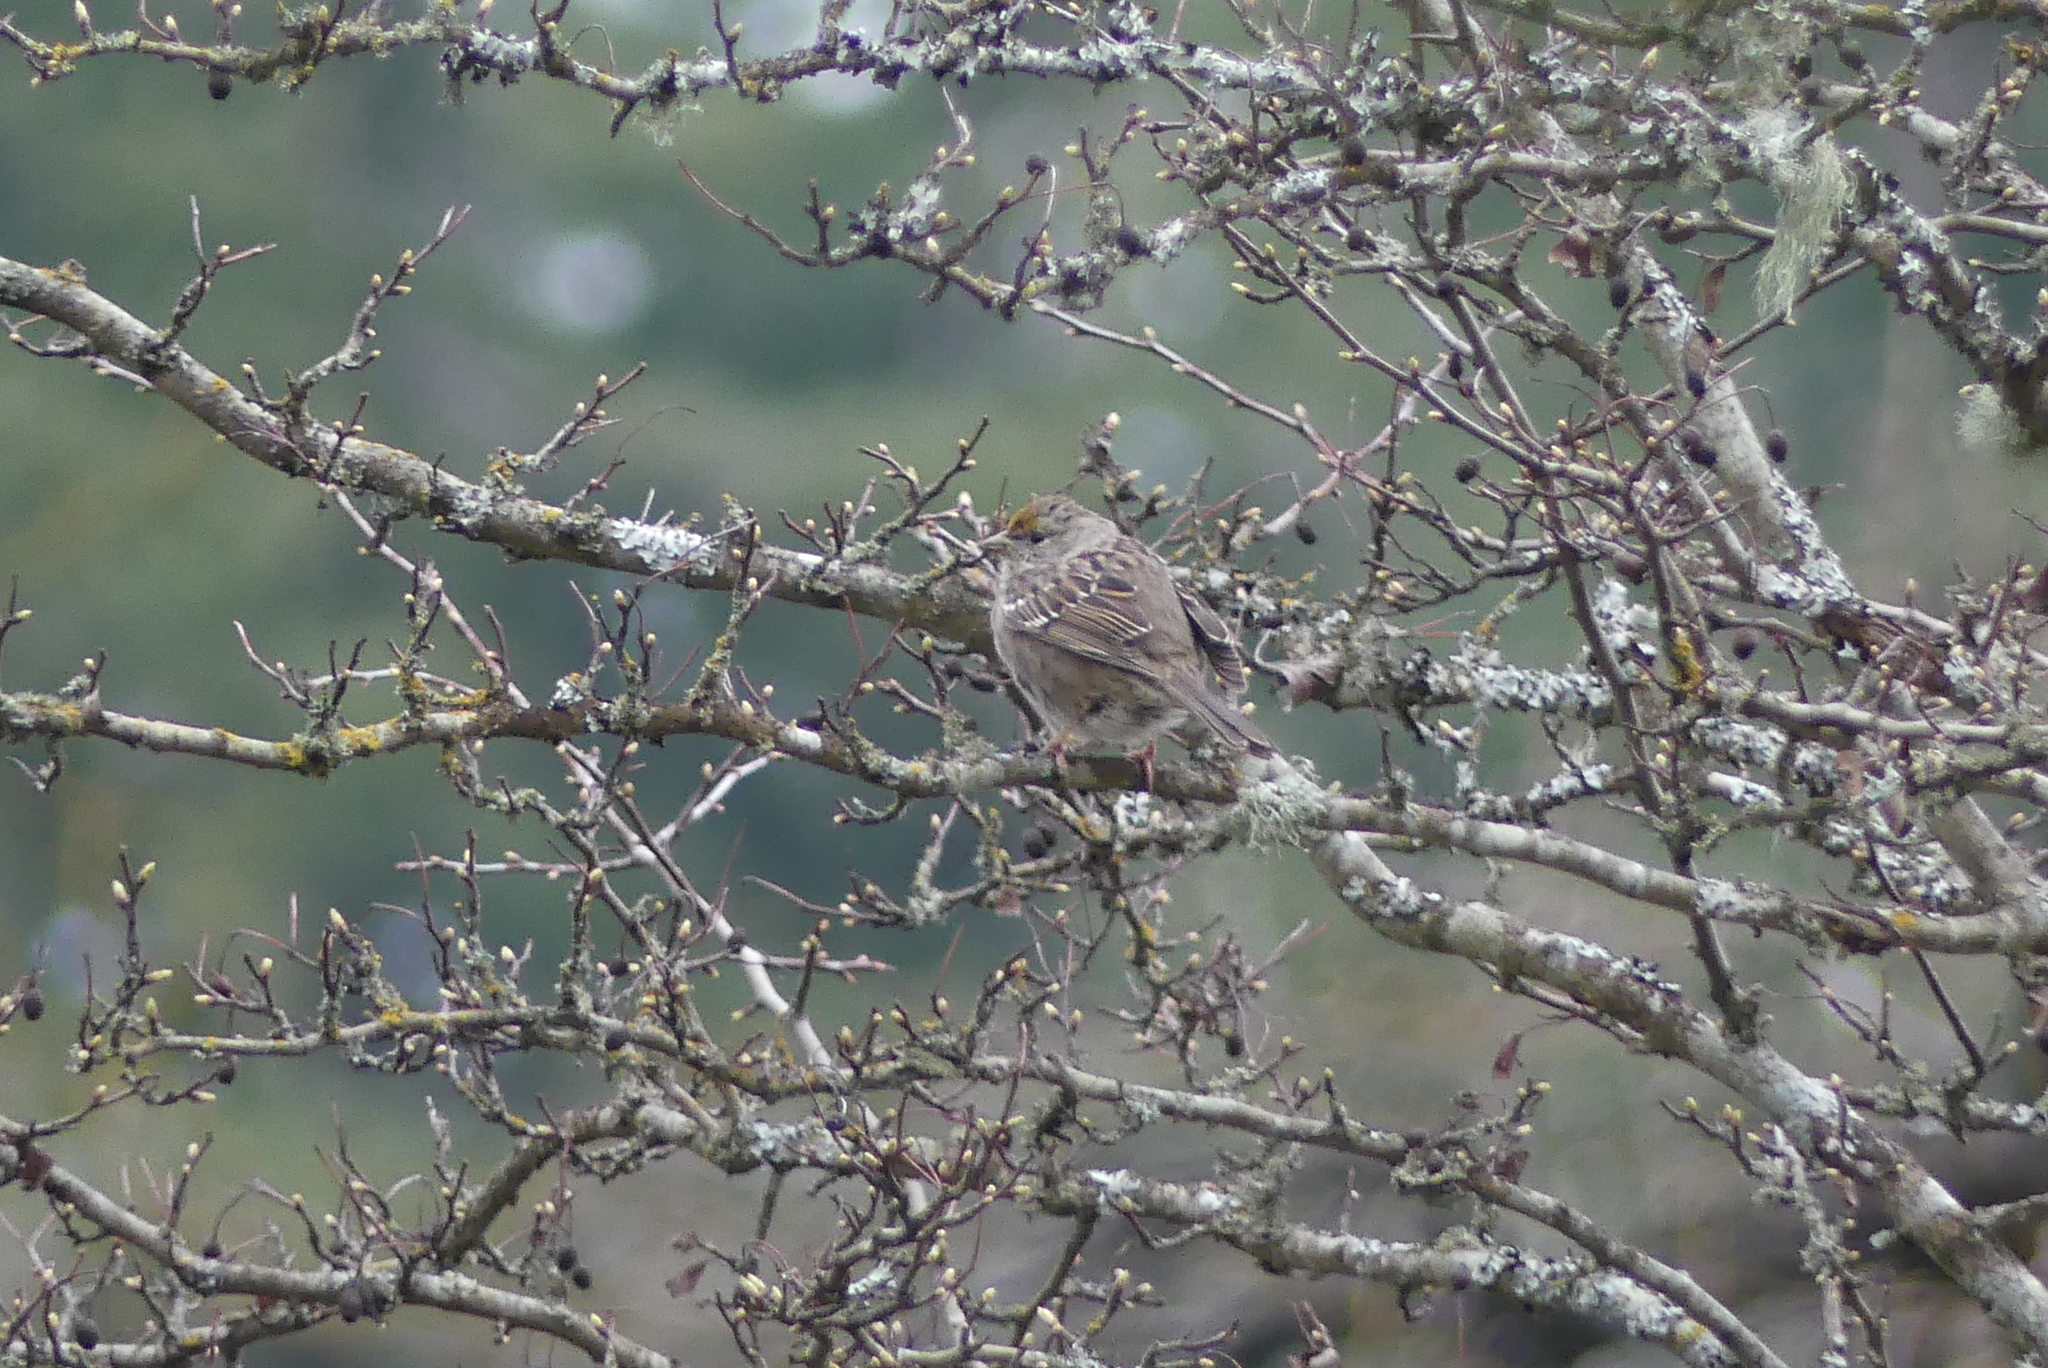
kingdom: Animalia
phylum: Chordata
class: Aves
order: Passeriformes
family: Passerellidae
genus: Zonotrichia
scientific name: Zonotrichia atricapilla
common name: Golden-crowned sparrow
